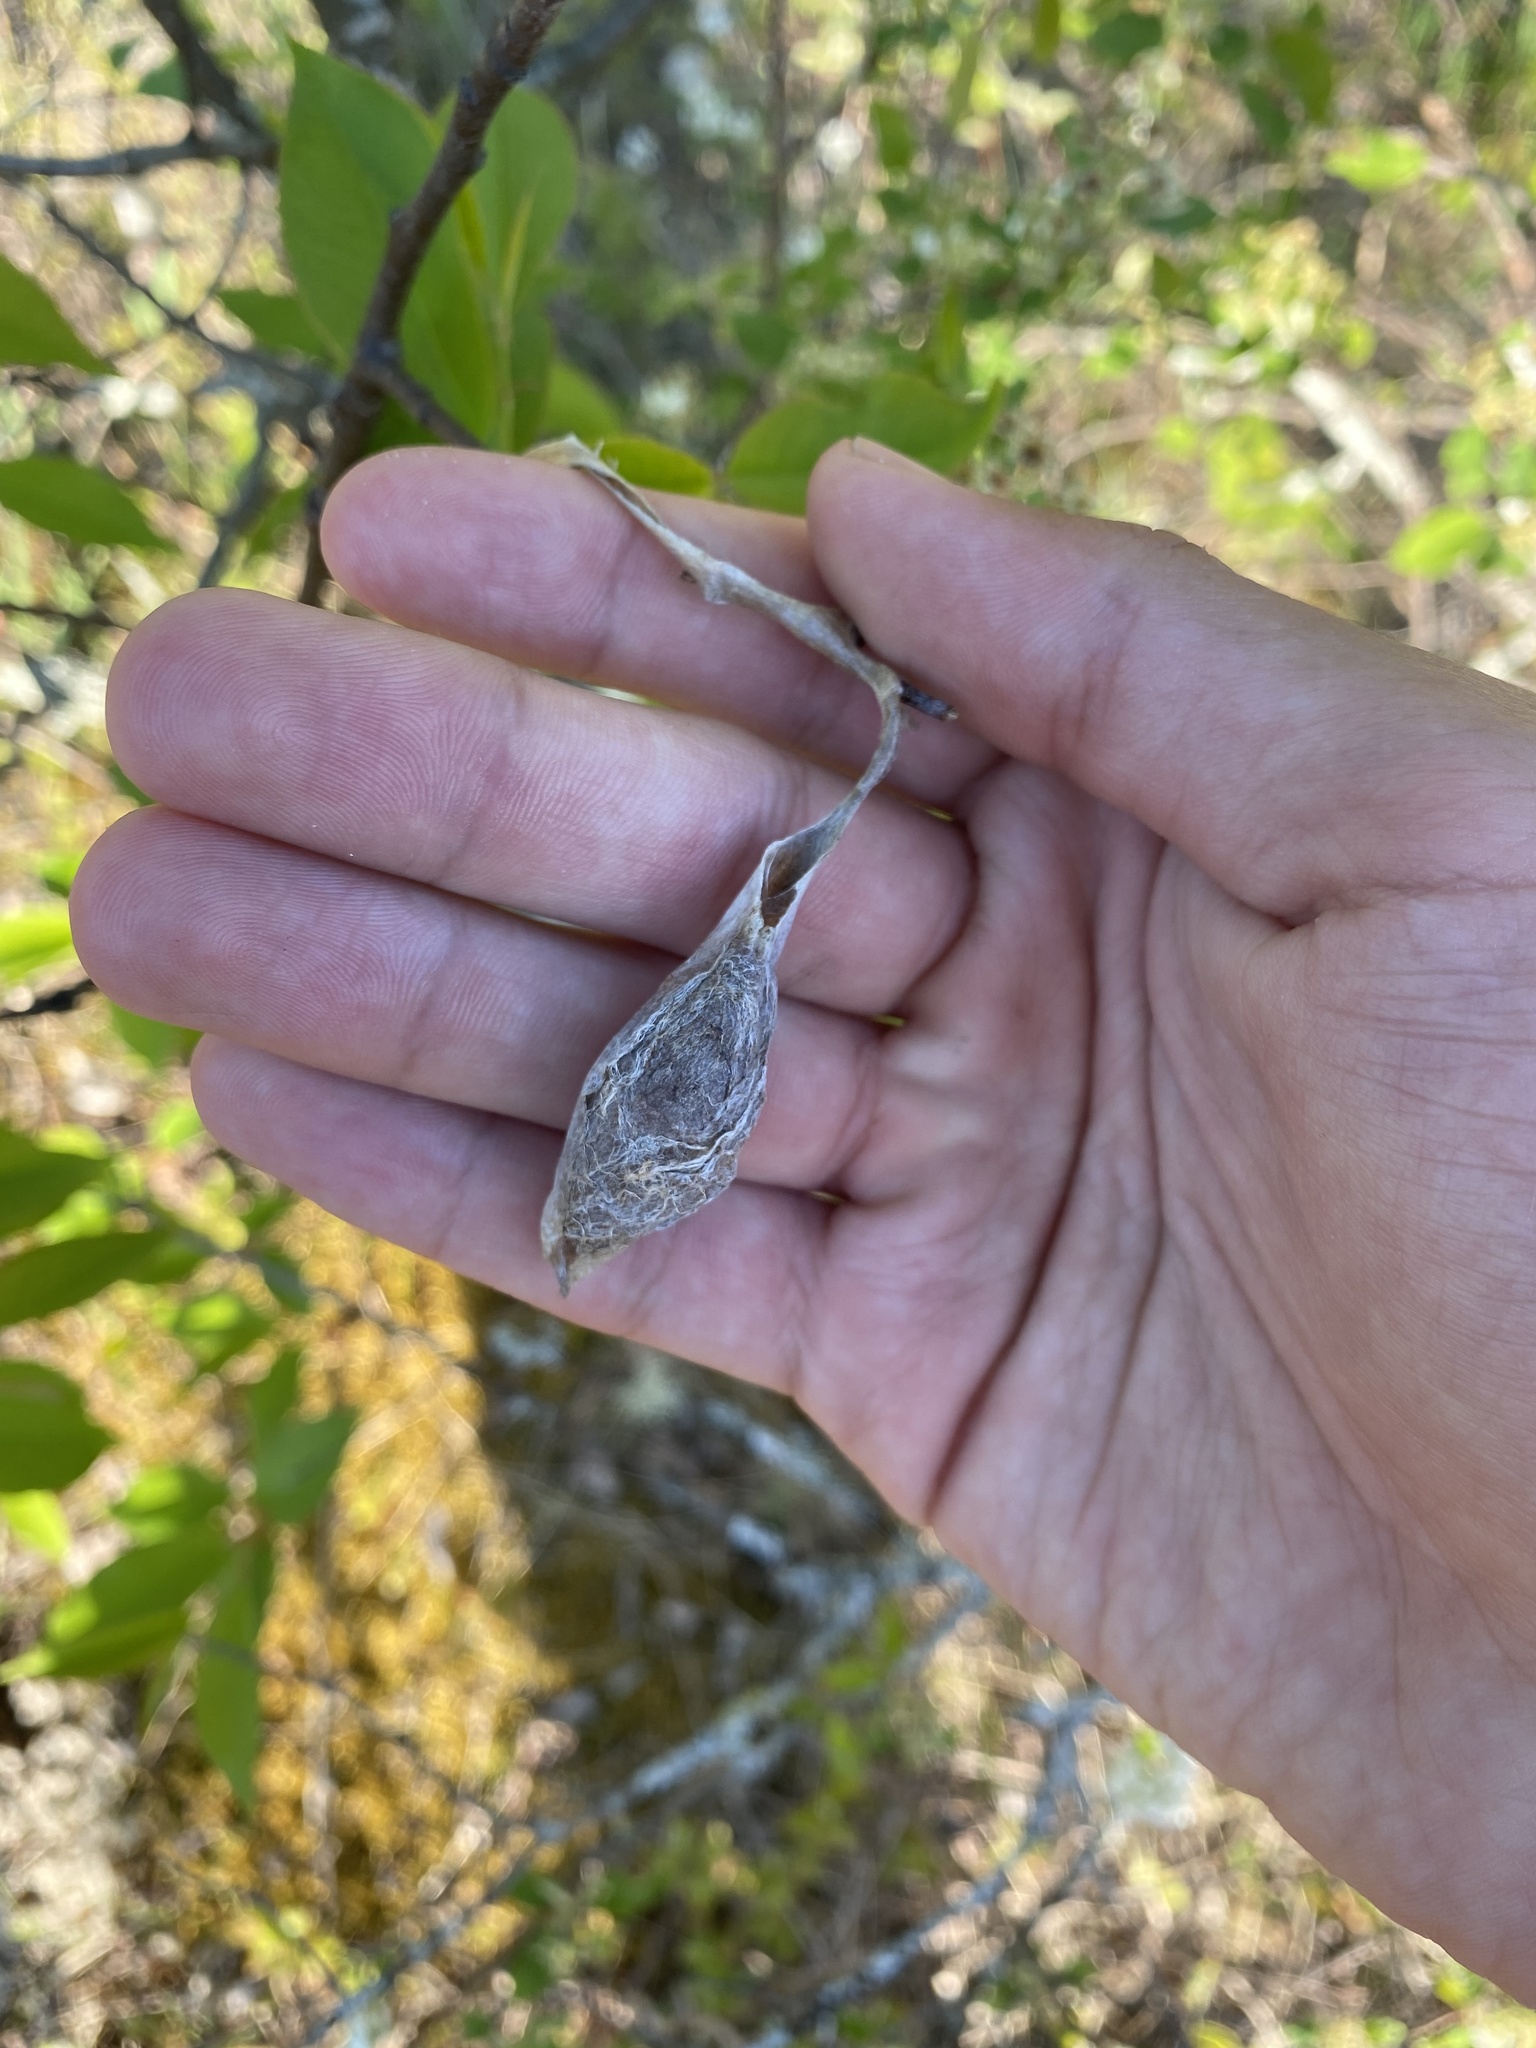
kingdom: Animalia
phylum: Arthropoda
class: Insecta
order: Lepidoptera
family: Saturniidae
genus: Callosamia
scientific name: Callosamia promethea
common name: Promethea silkmoth
